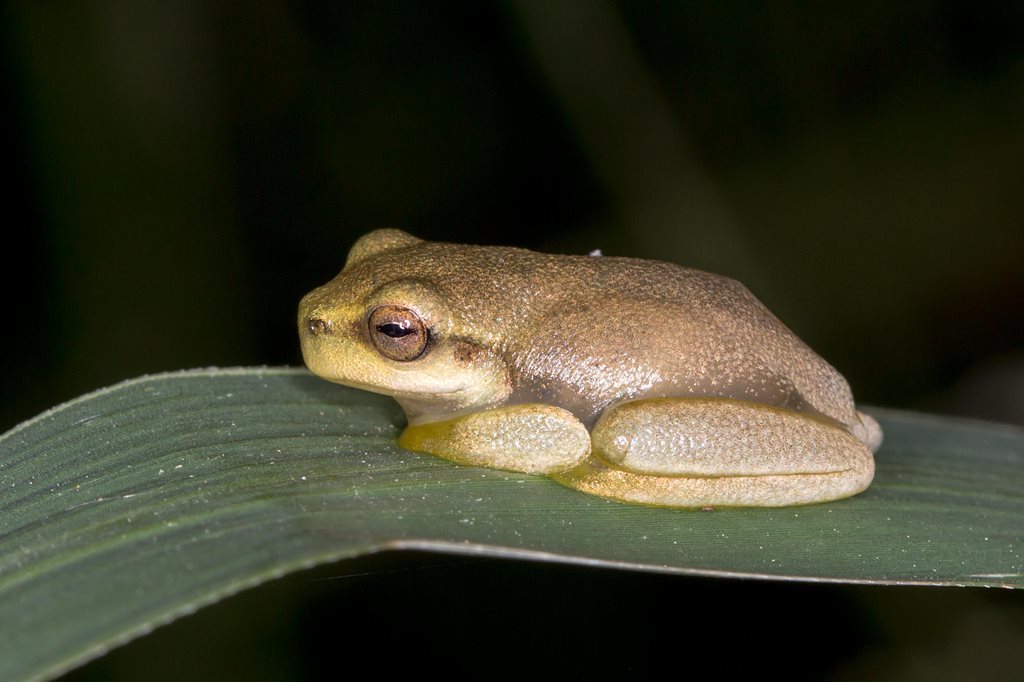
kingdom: Animalia
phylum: Chordata
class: Amphibia
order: Anura
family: Pelodryadidae
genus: Ranoidea
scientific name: Ranoidea gracilenta
